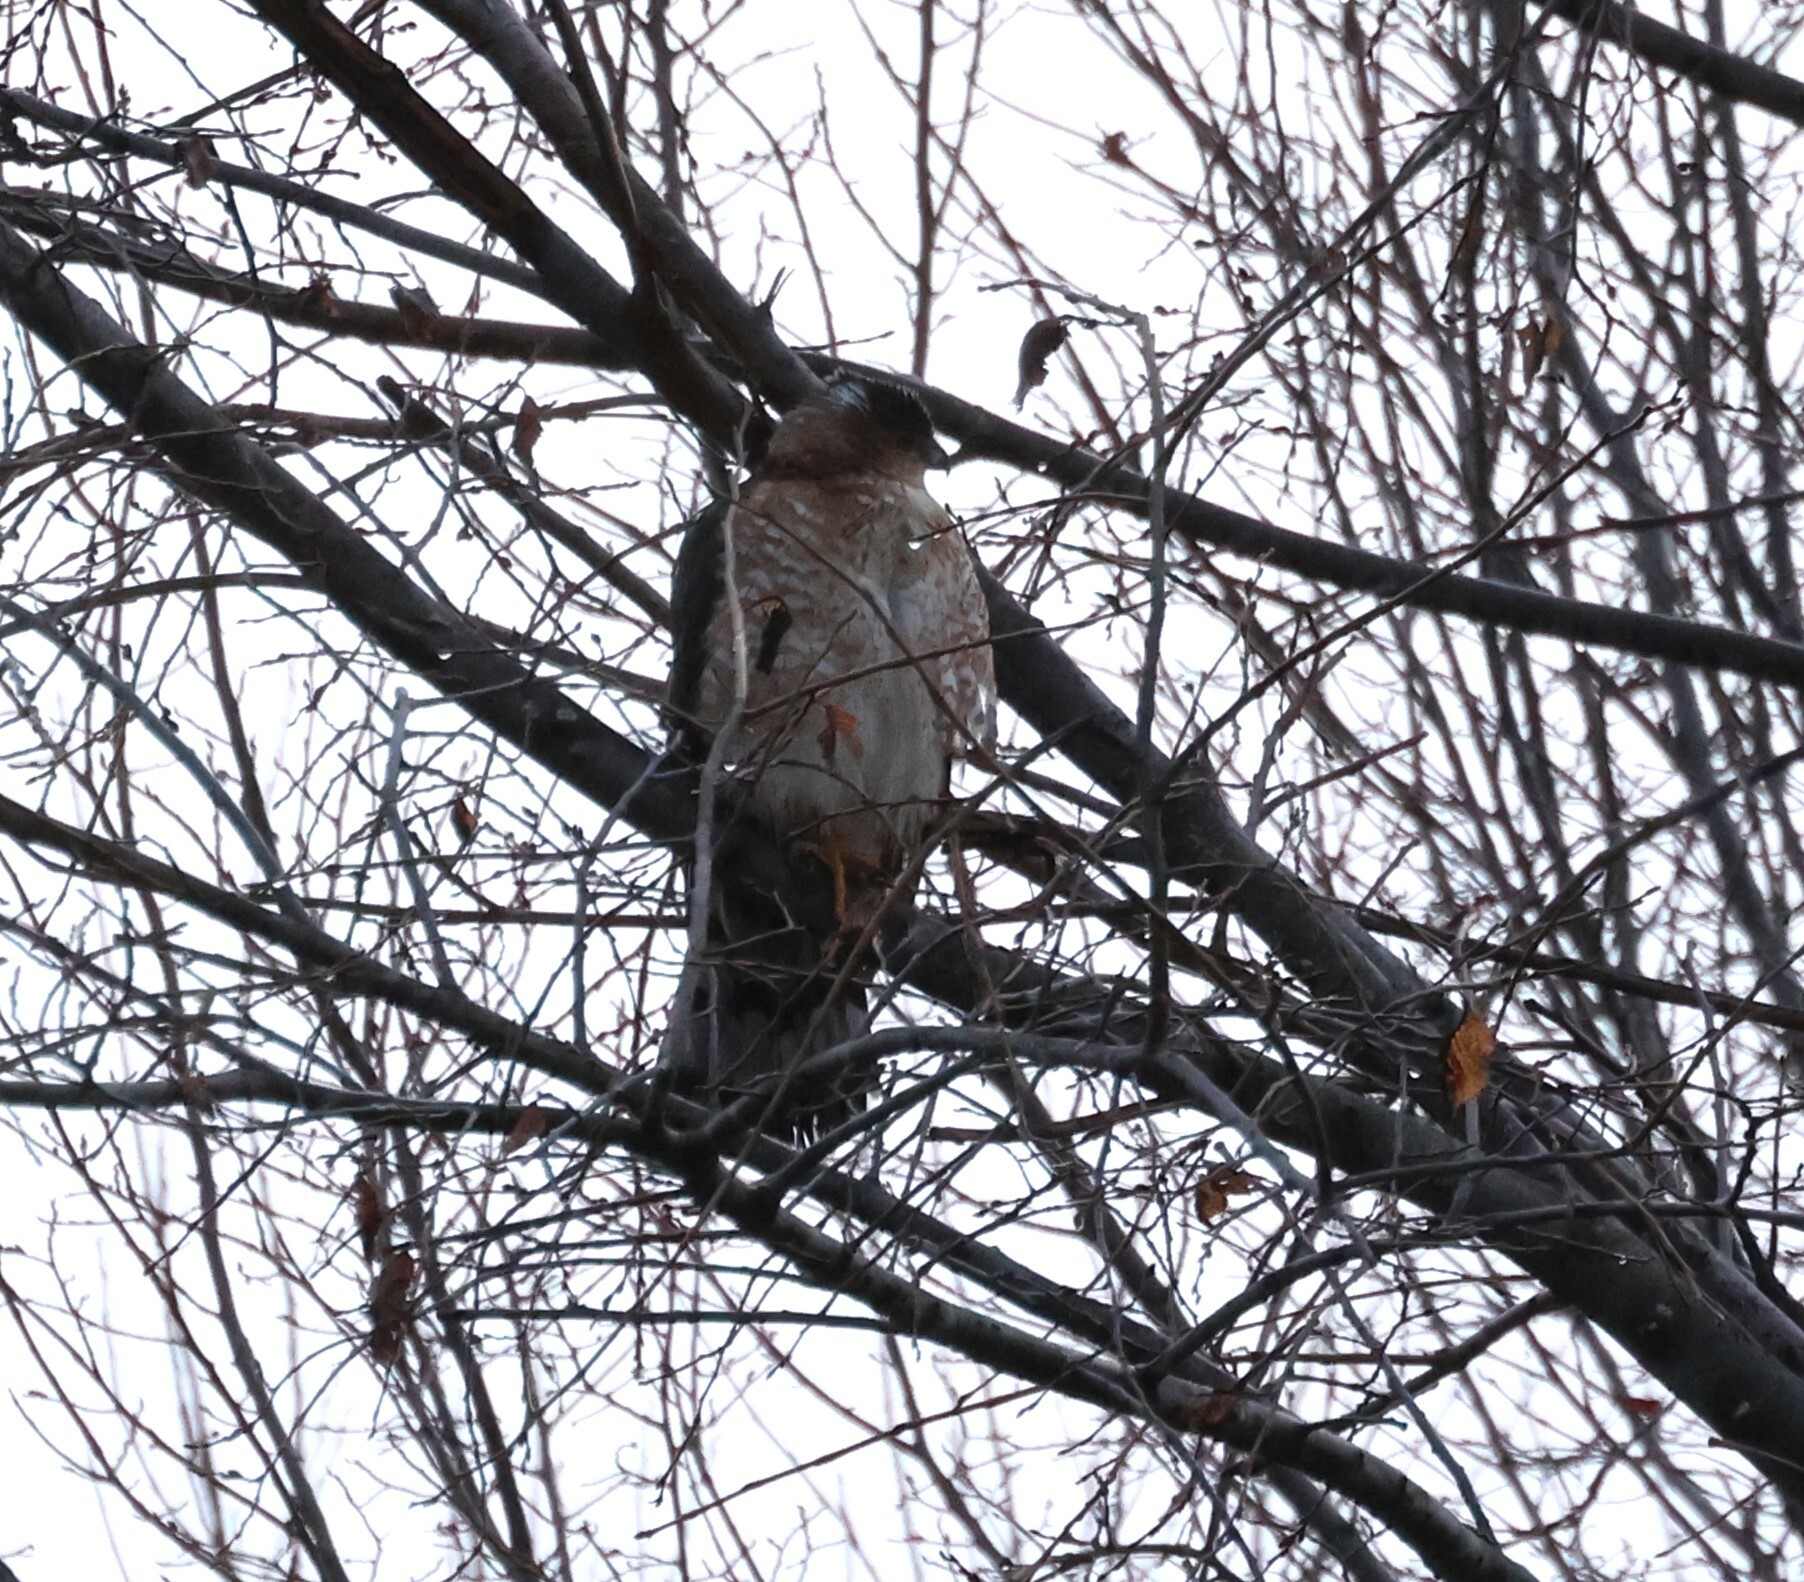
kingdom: Animalia
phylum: Chordata
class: Aves
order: Accipitriformes
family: Accipitridae
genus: Accipiter
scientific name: Accipiter cooperii
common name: Cooper's hawk
